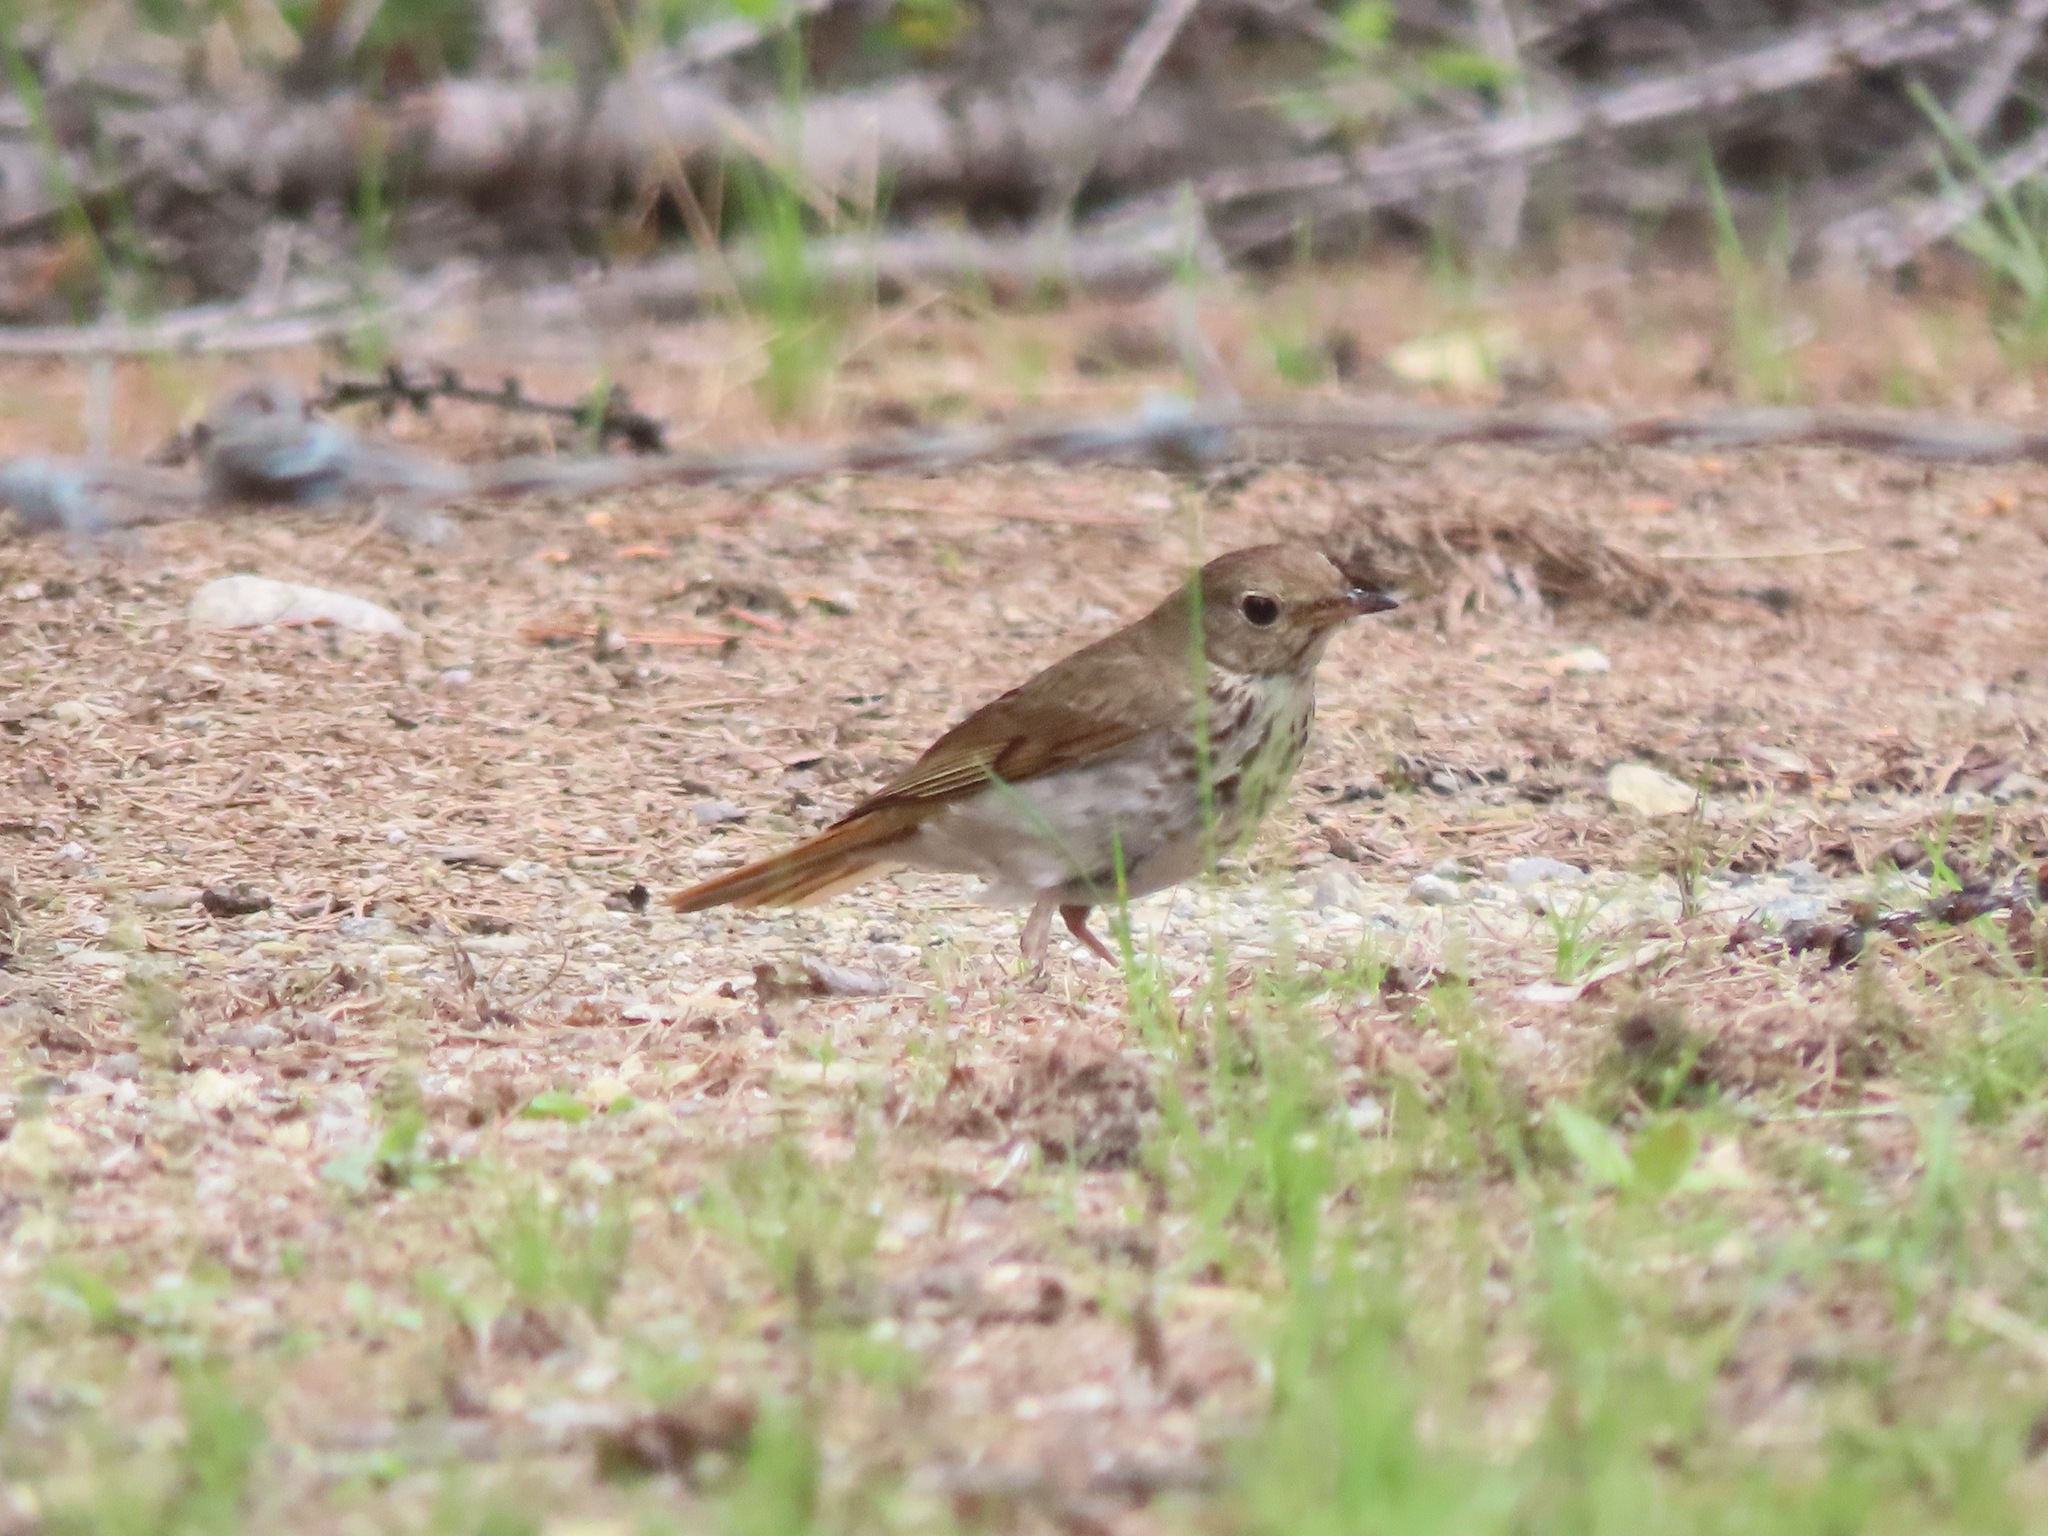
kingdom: Animalia
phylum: Chordata
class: Aves
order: Passeriformes
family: Turdidae
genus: Catharus
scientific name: Catharus guttatus
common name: Hermit thrush
